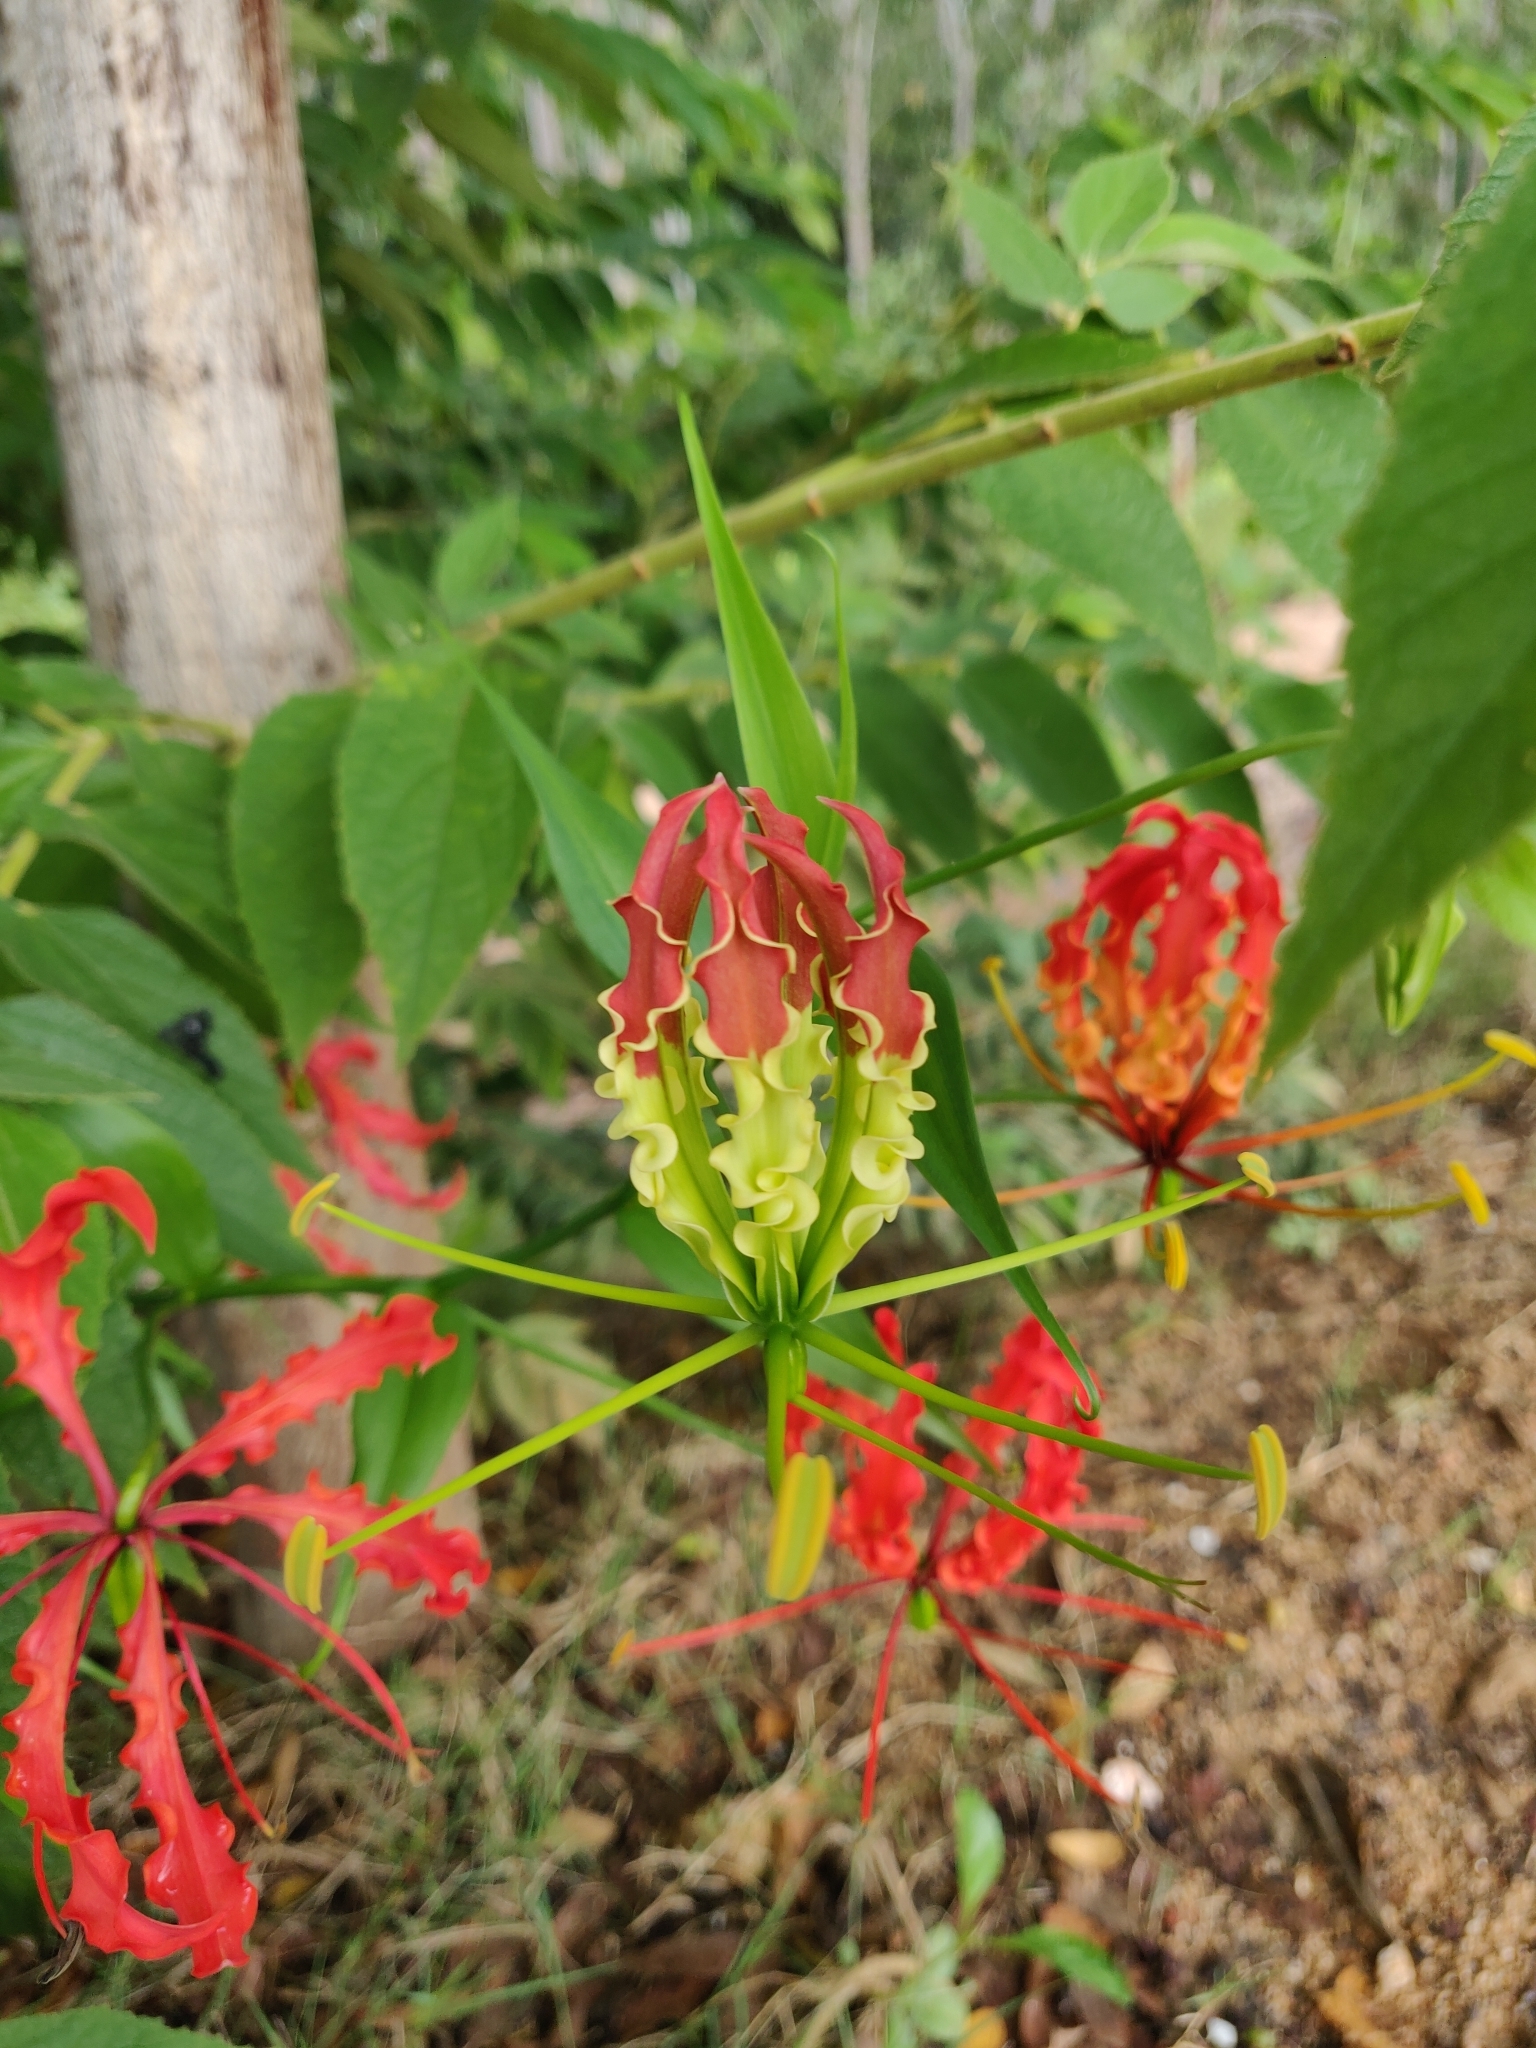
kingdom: Plantae
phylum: Tracheophyta
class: Liliopsida
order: Liliales
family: Colchicaceae
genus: Gloriosa
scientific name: Gloriosa superba
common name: Flame lily
